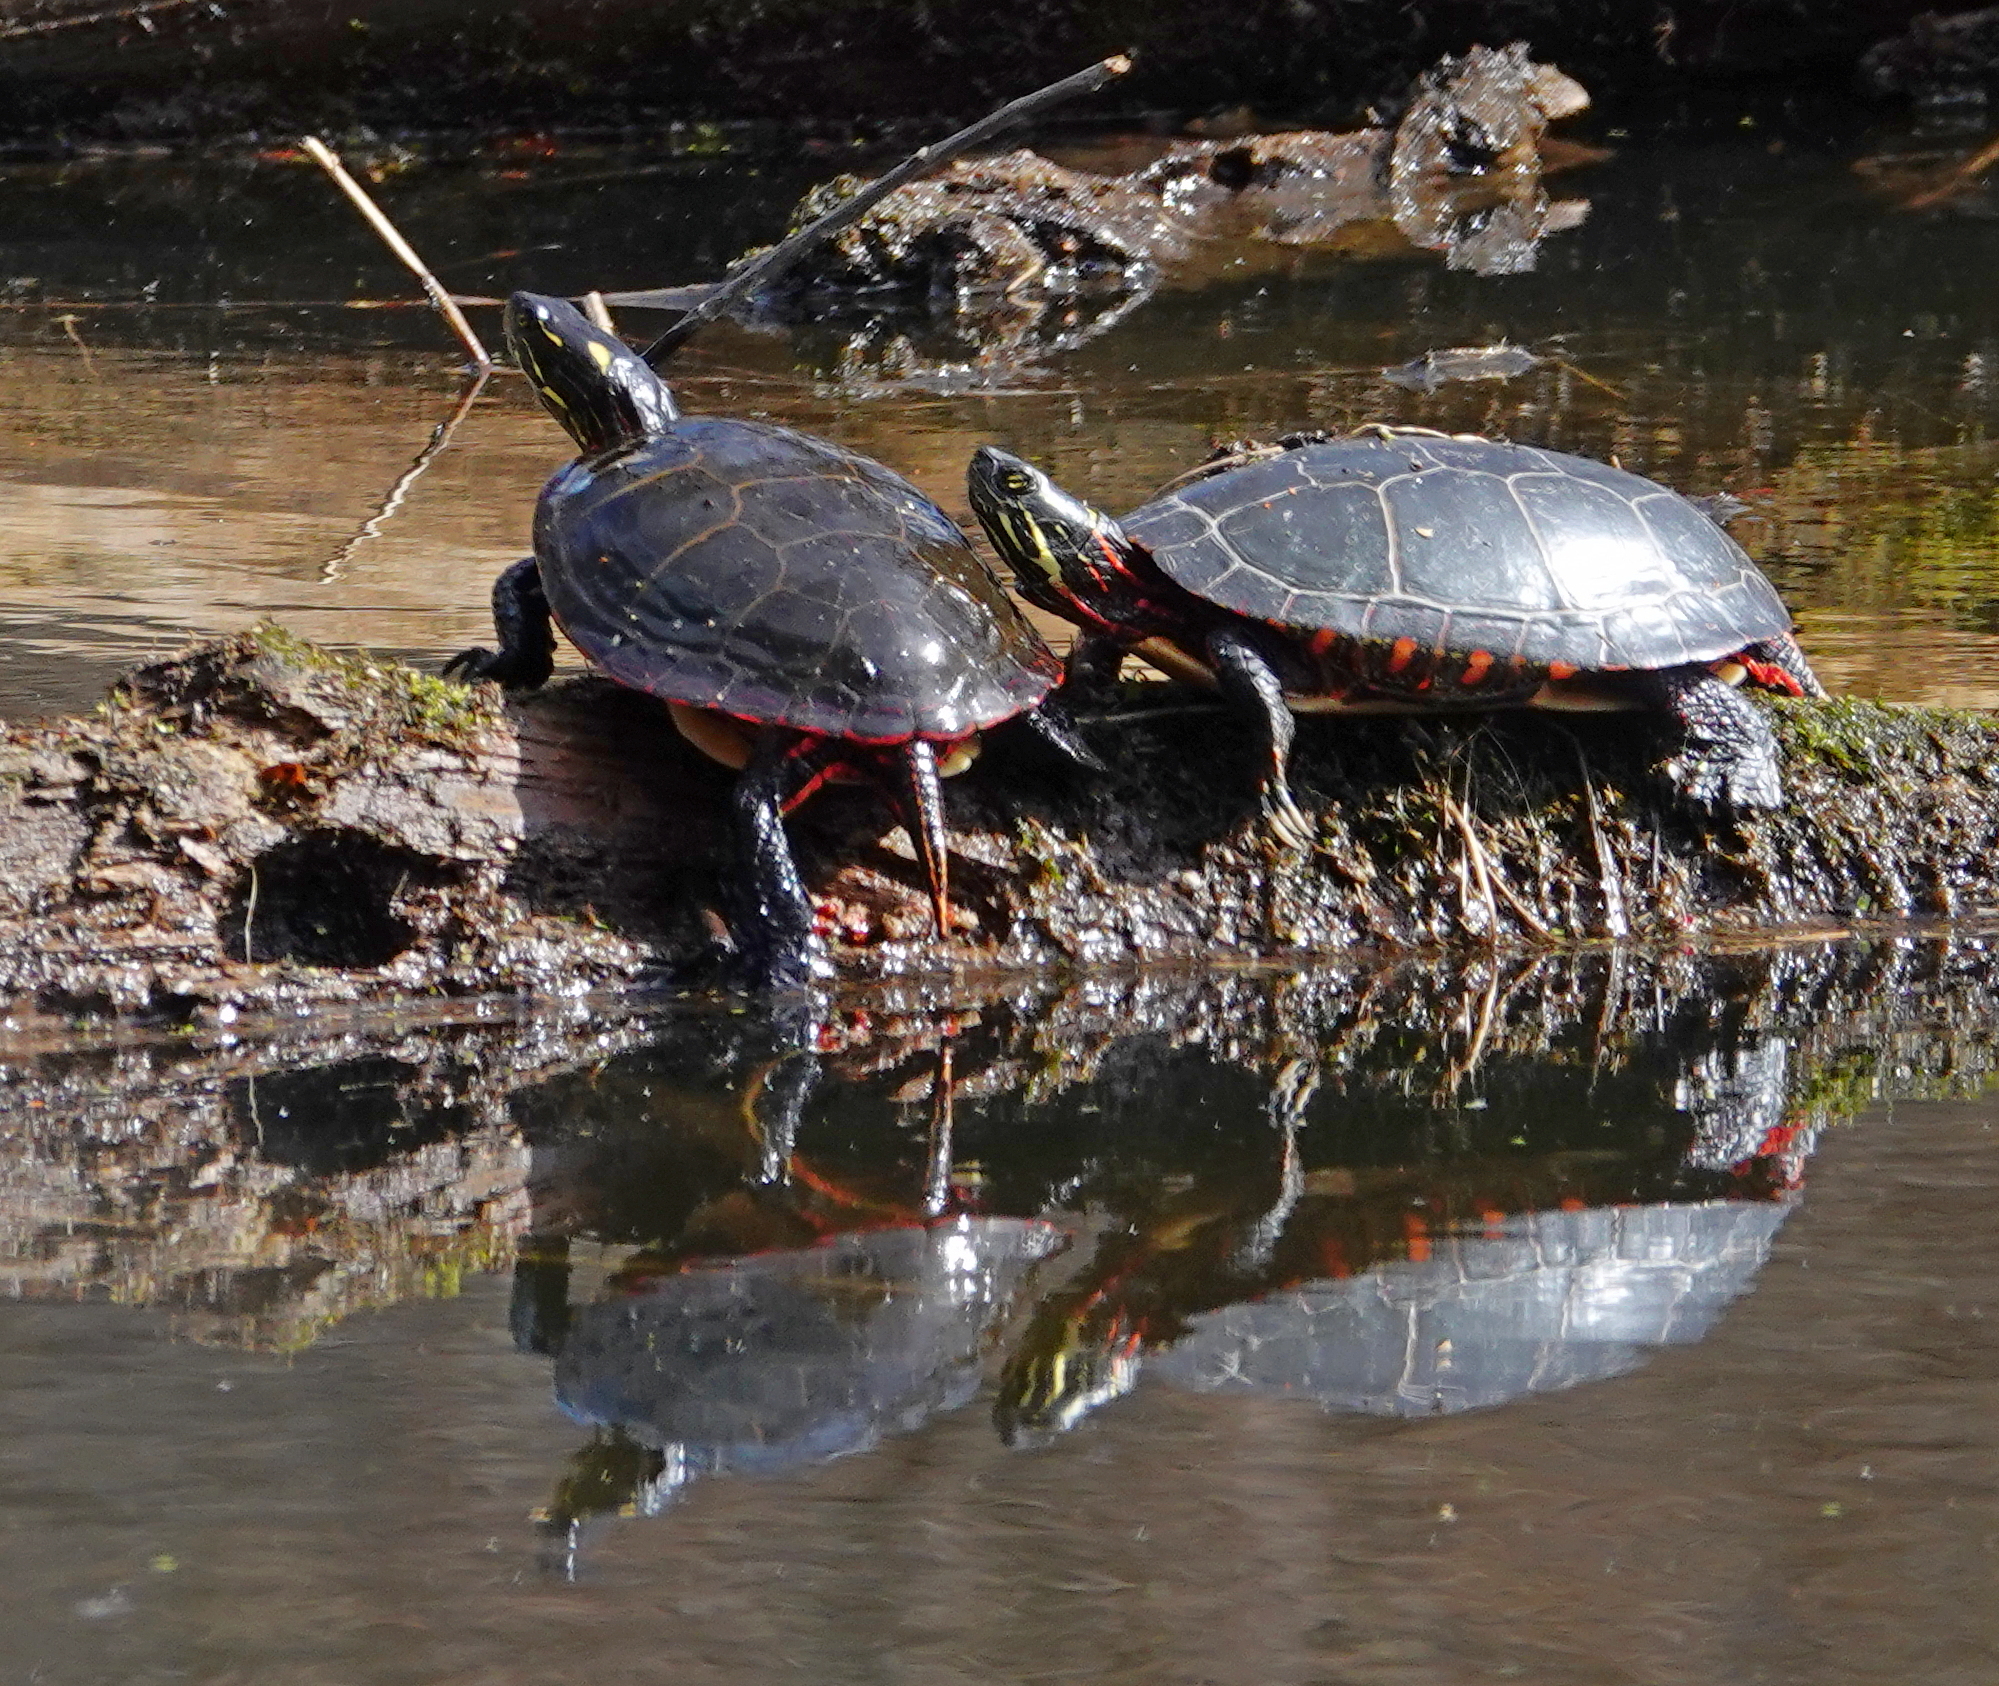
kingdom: Animalia
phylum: Chordata
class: Testudines
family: Emydidae
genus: Chrysemys
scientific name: Chrysemys picta
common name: Painted turtle
